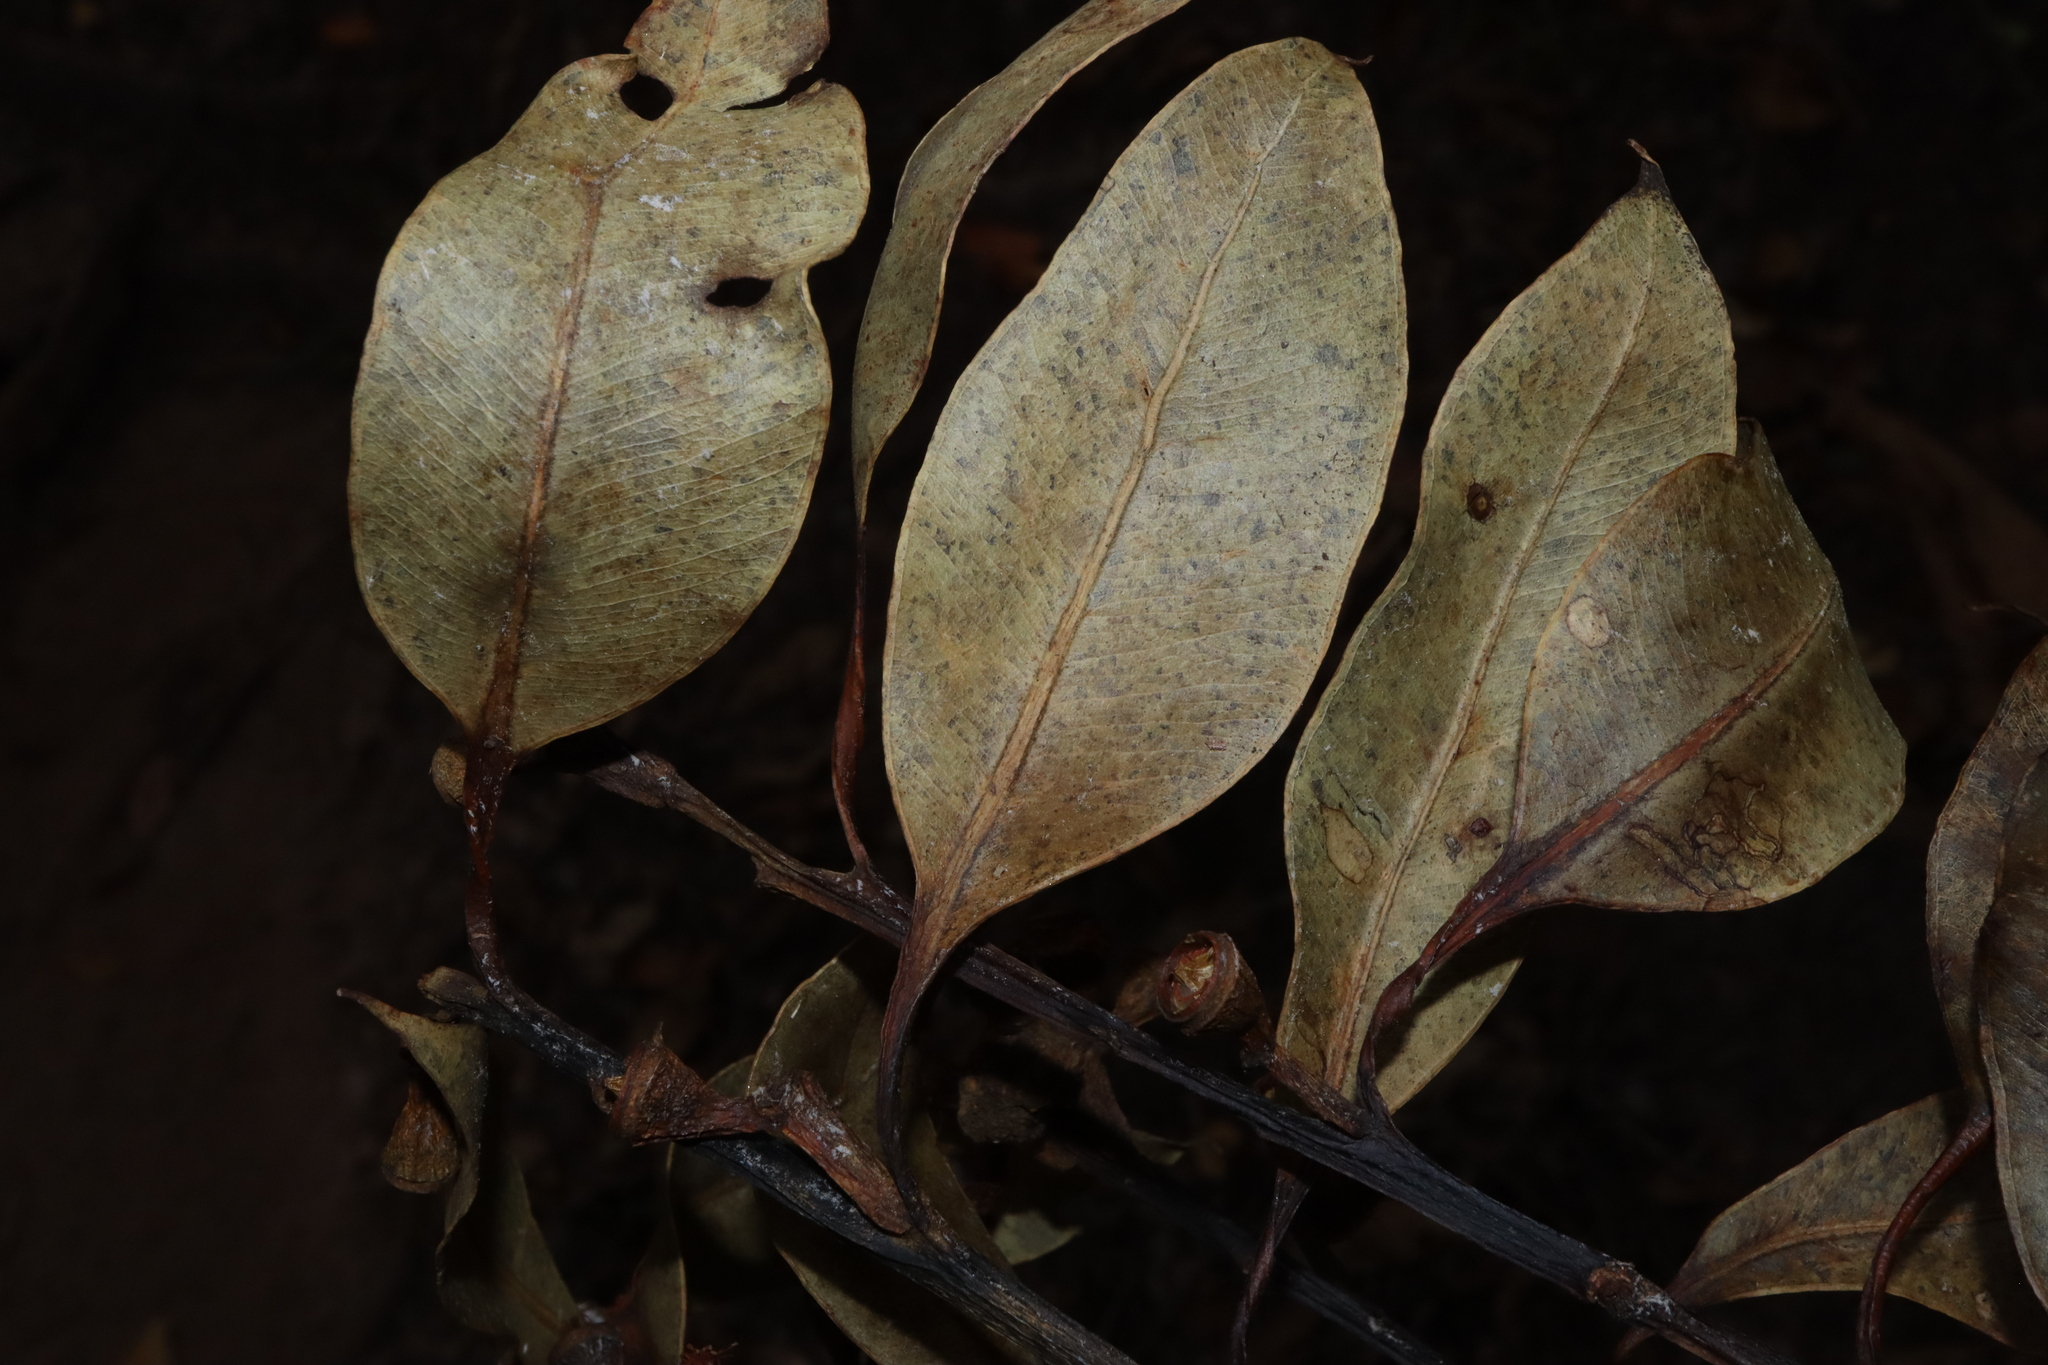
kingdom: Plantae
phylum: Tracheophyta
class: Magnoliopsida
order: Myrtales
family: Myrtaceae
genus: Eucalyptus
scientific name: Eucalyptus pellita
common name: Large-fruited-red-mahogany
